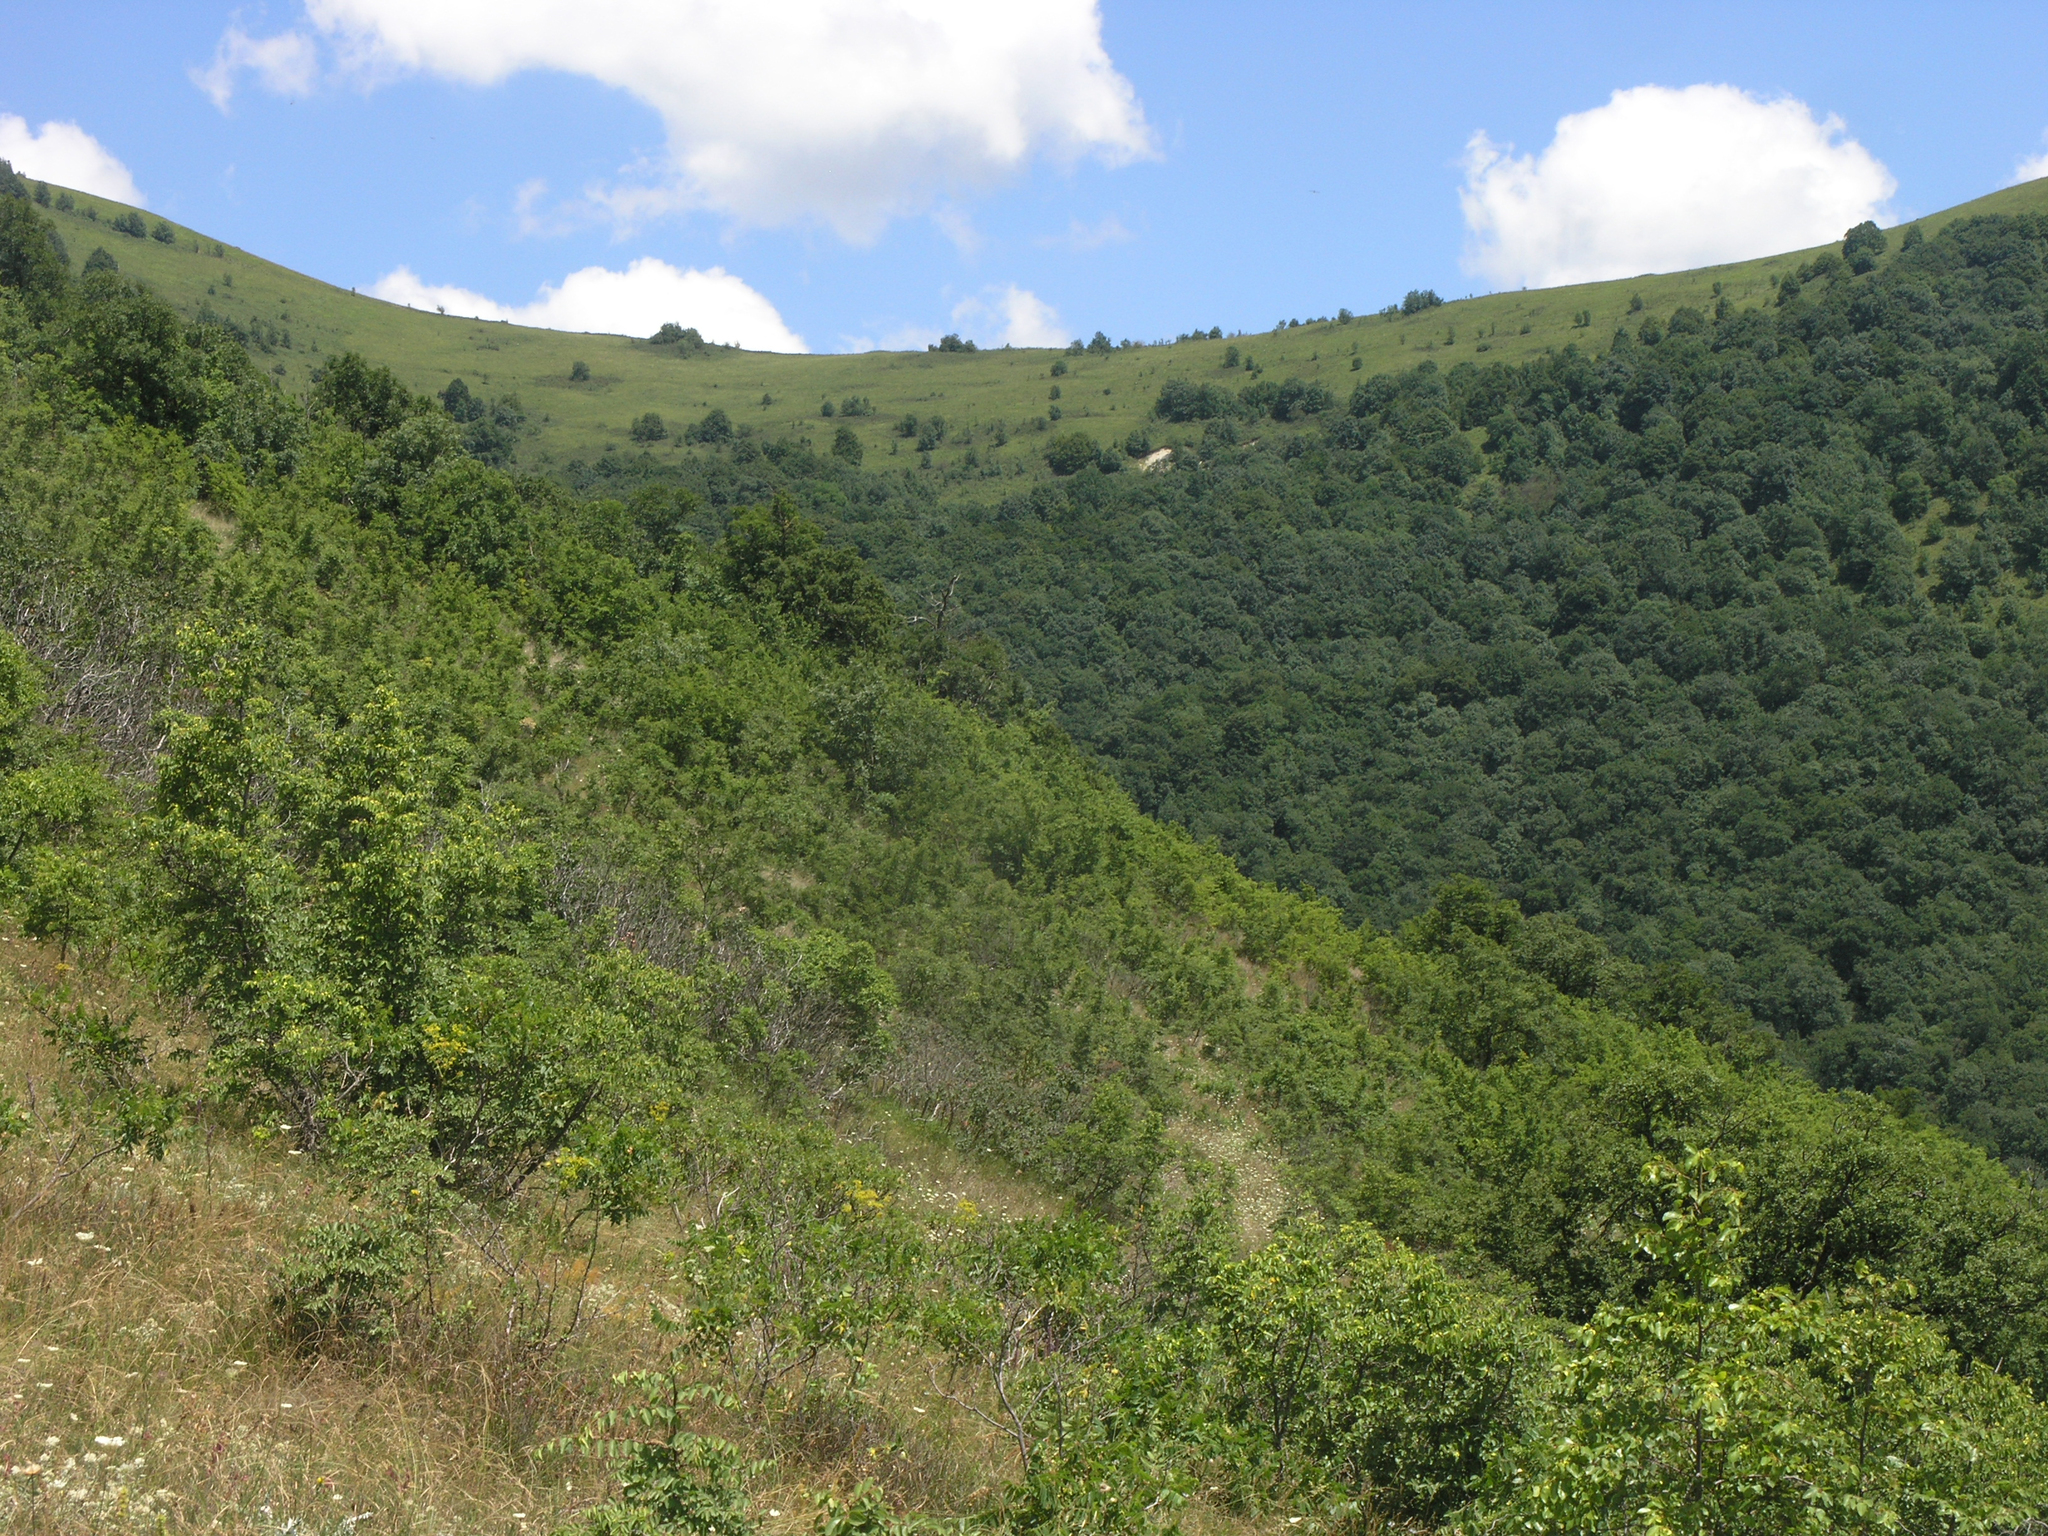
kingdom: Plantae
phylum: Tracheophyta
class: Magnoliopsida
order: Rosales
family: Rhamnaceae
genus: Paliurus
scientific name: Paliurus spina-christi
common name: Jeruselem thorn
